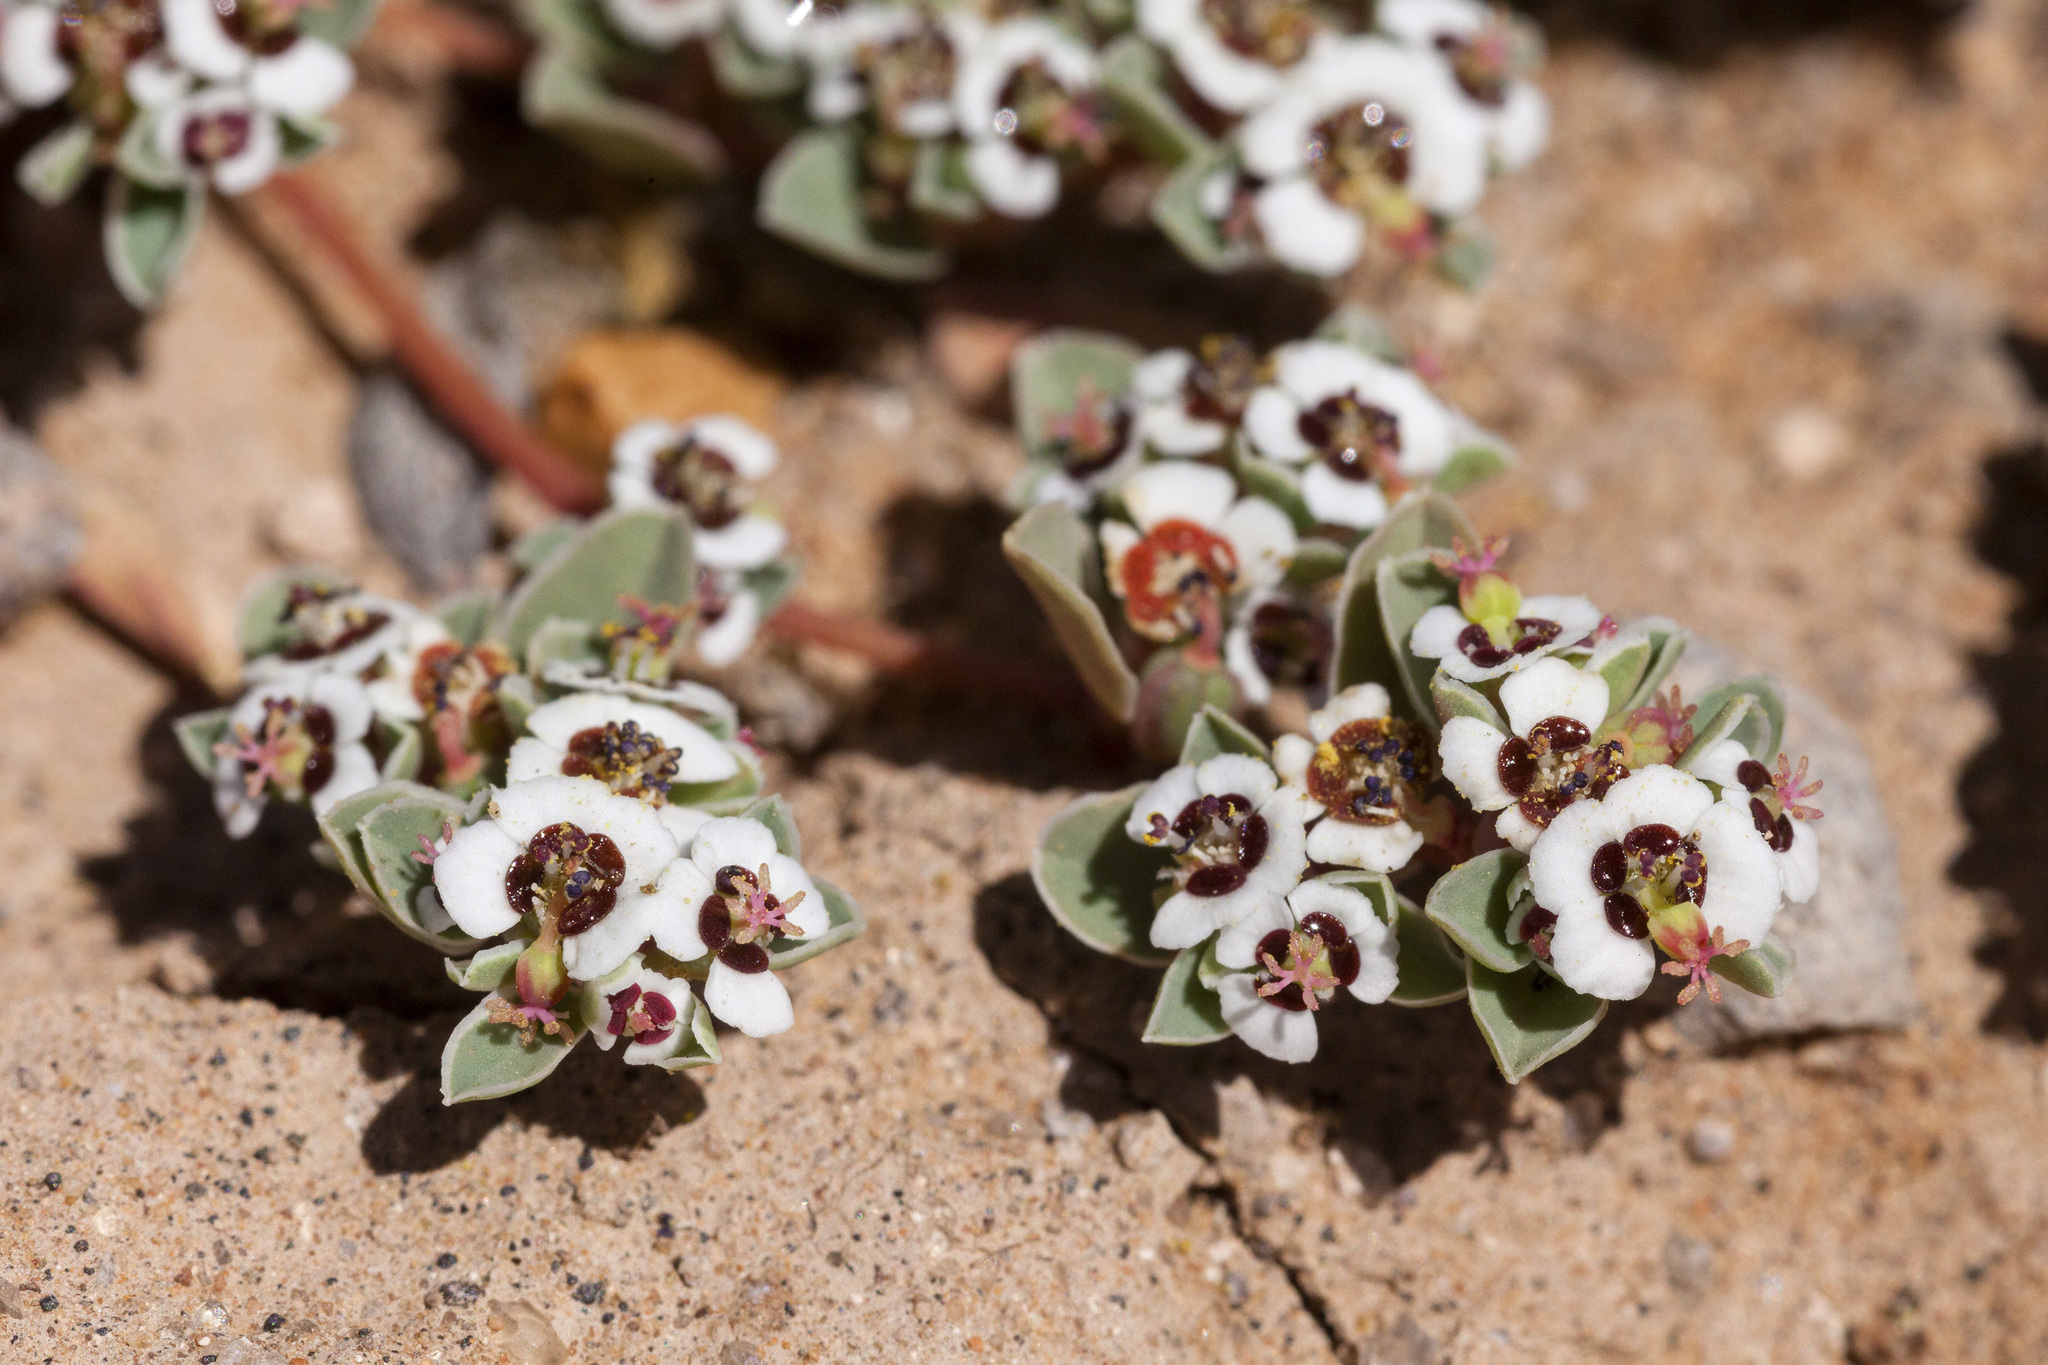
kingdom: Plantae
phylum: Tracheophyta
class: Magnoliopsida
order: Malpighiales
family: Euphorbiaceae
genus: Euphorbia
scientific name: Euphorbia albomarginata
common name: Whitemargin sandmat
